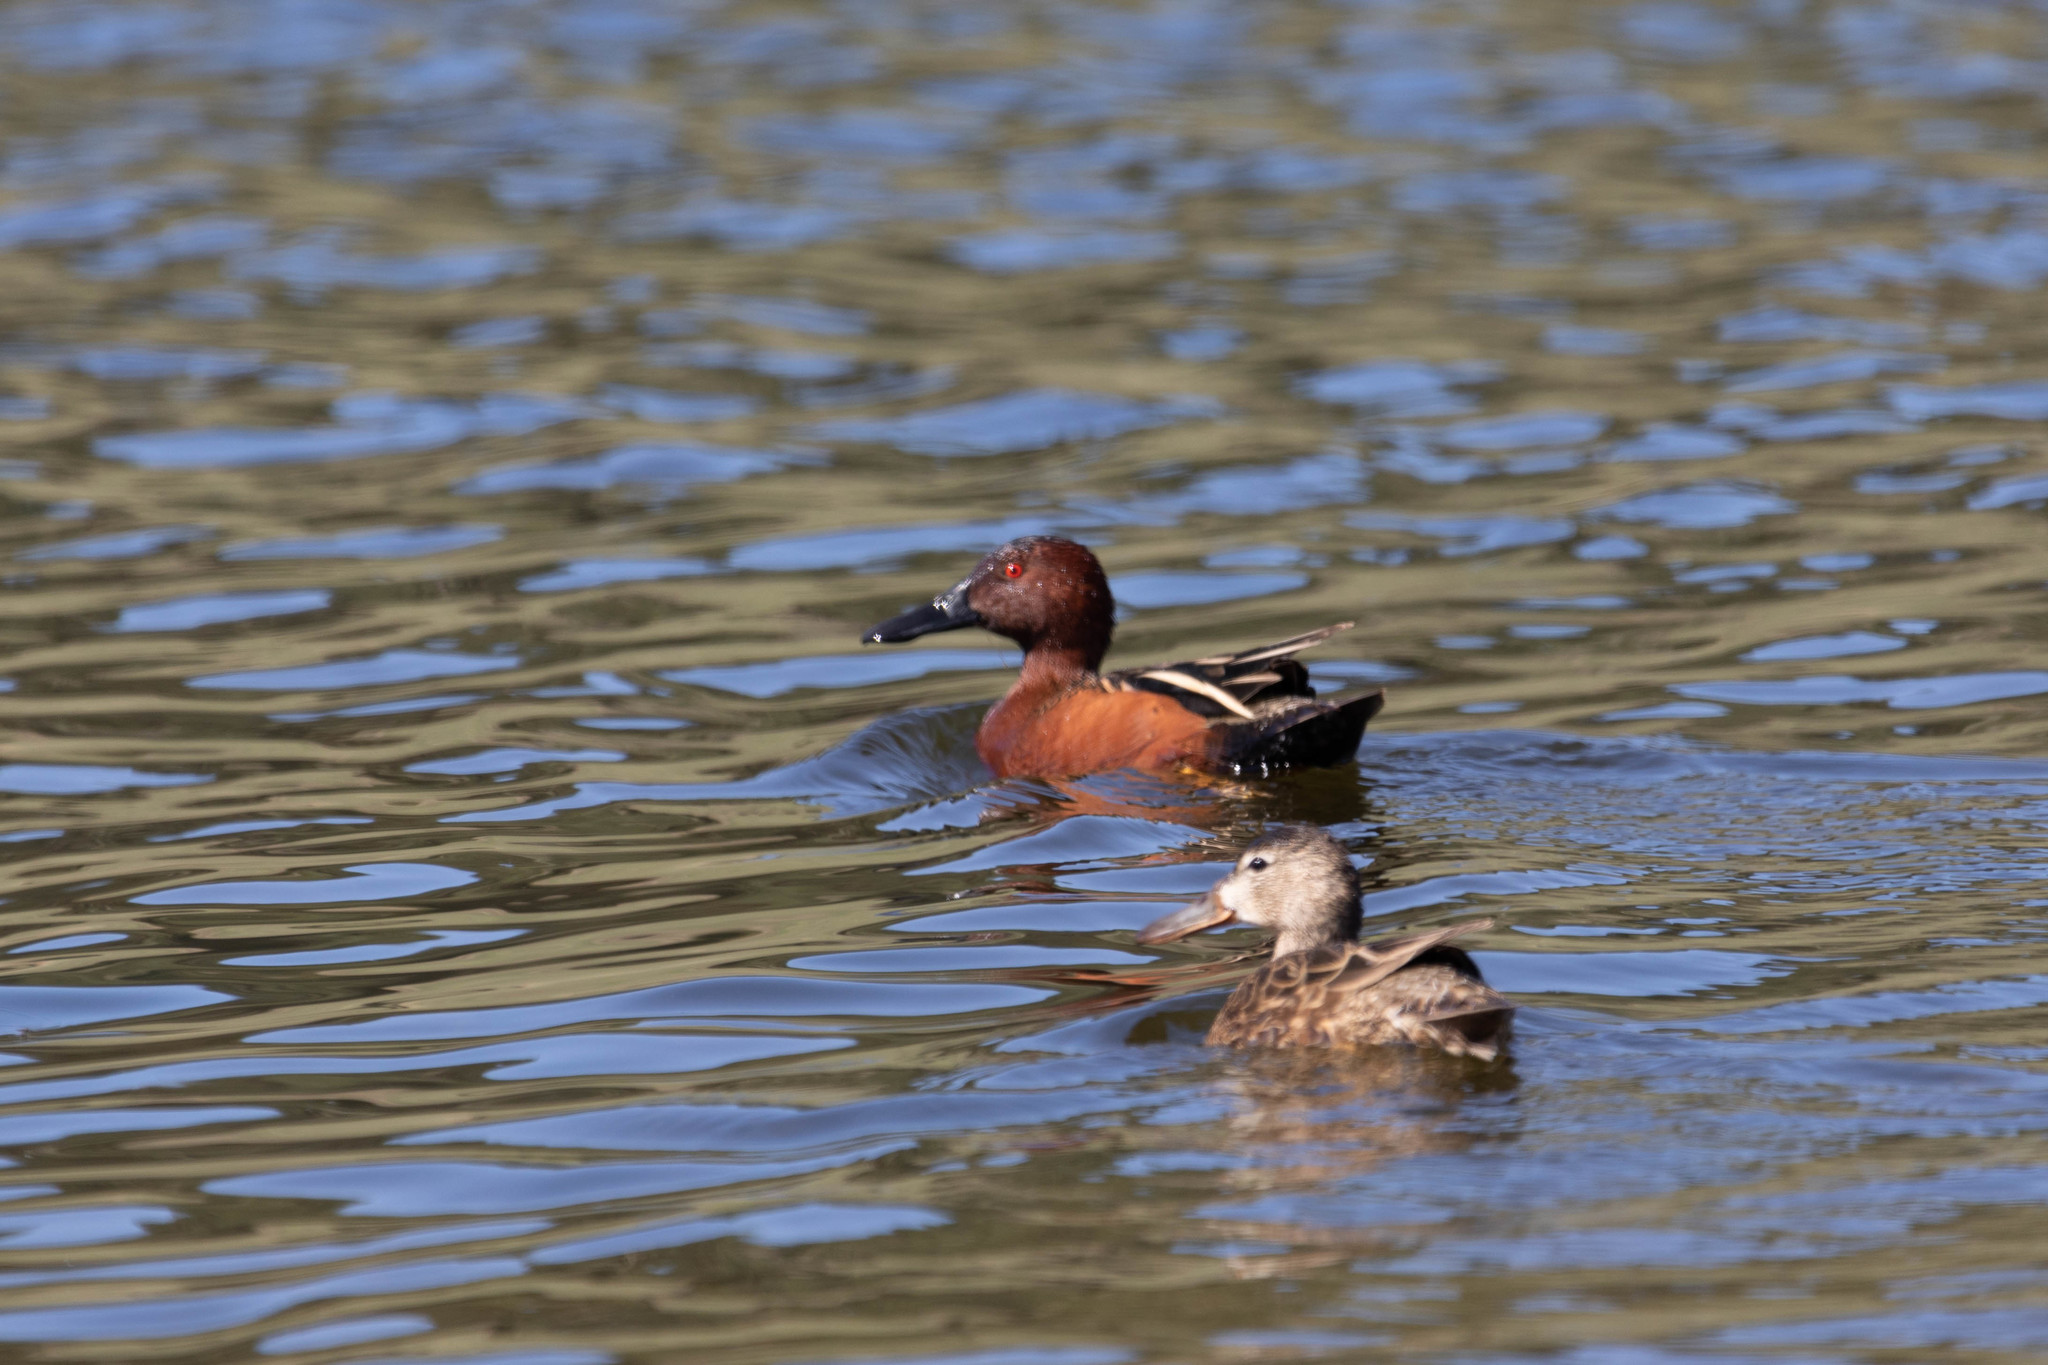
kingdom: Animalia
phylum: Chordata
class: Aves
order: Anseriformes
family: Anatidae
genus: Spatula
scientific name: Spatula cyanoptera
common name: Cinnamon teal
